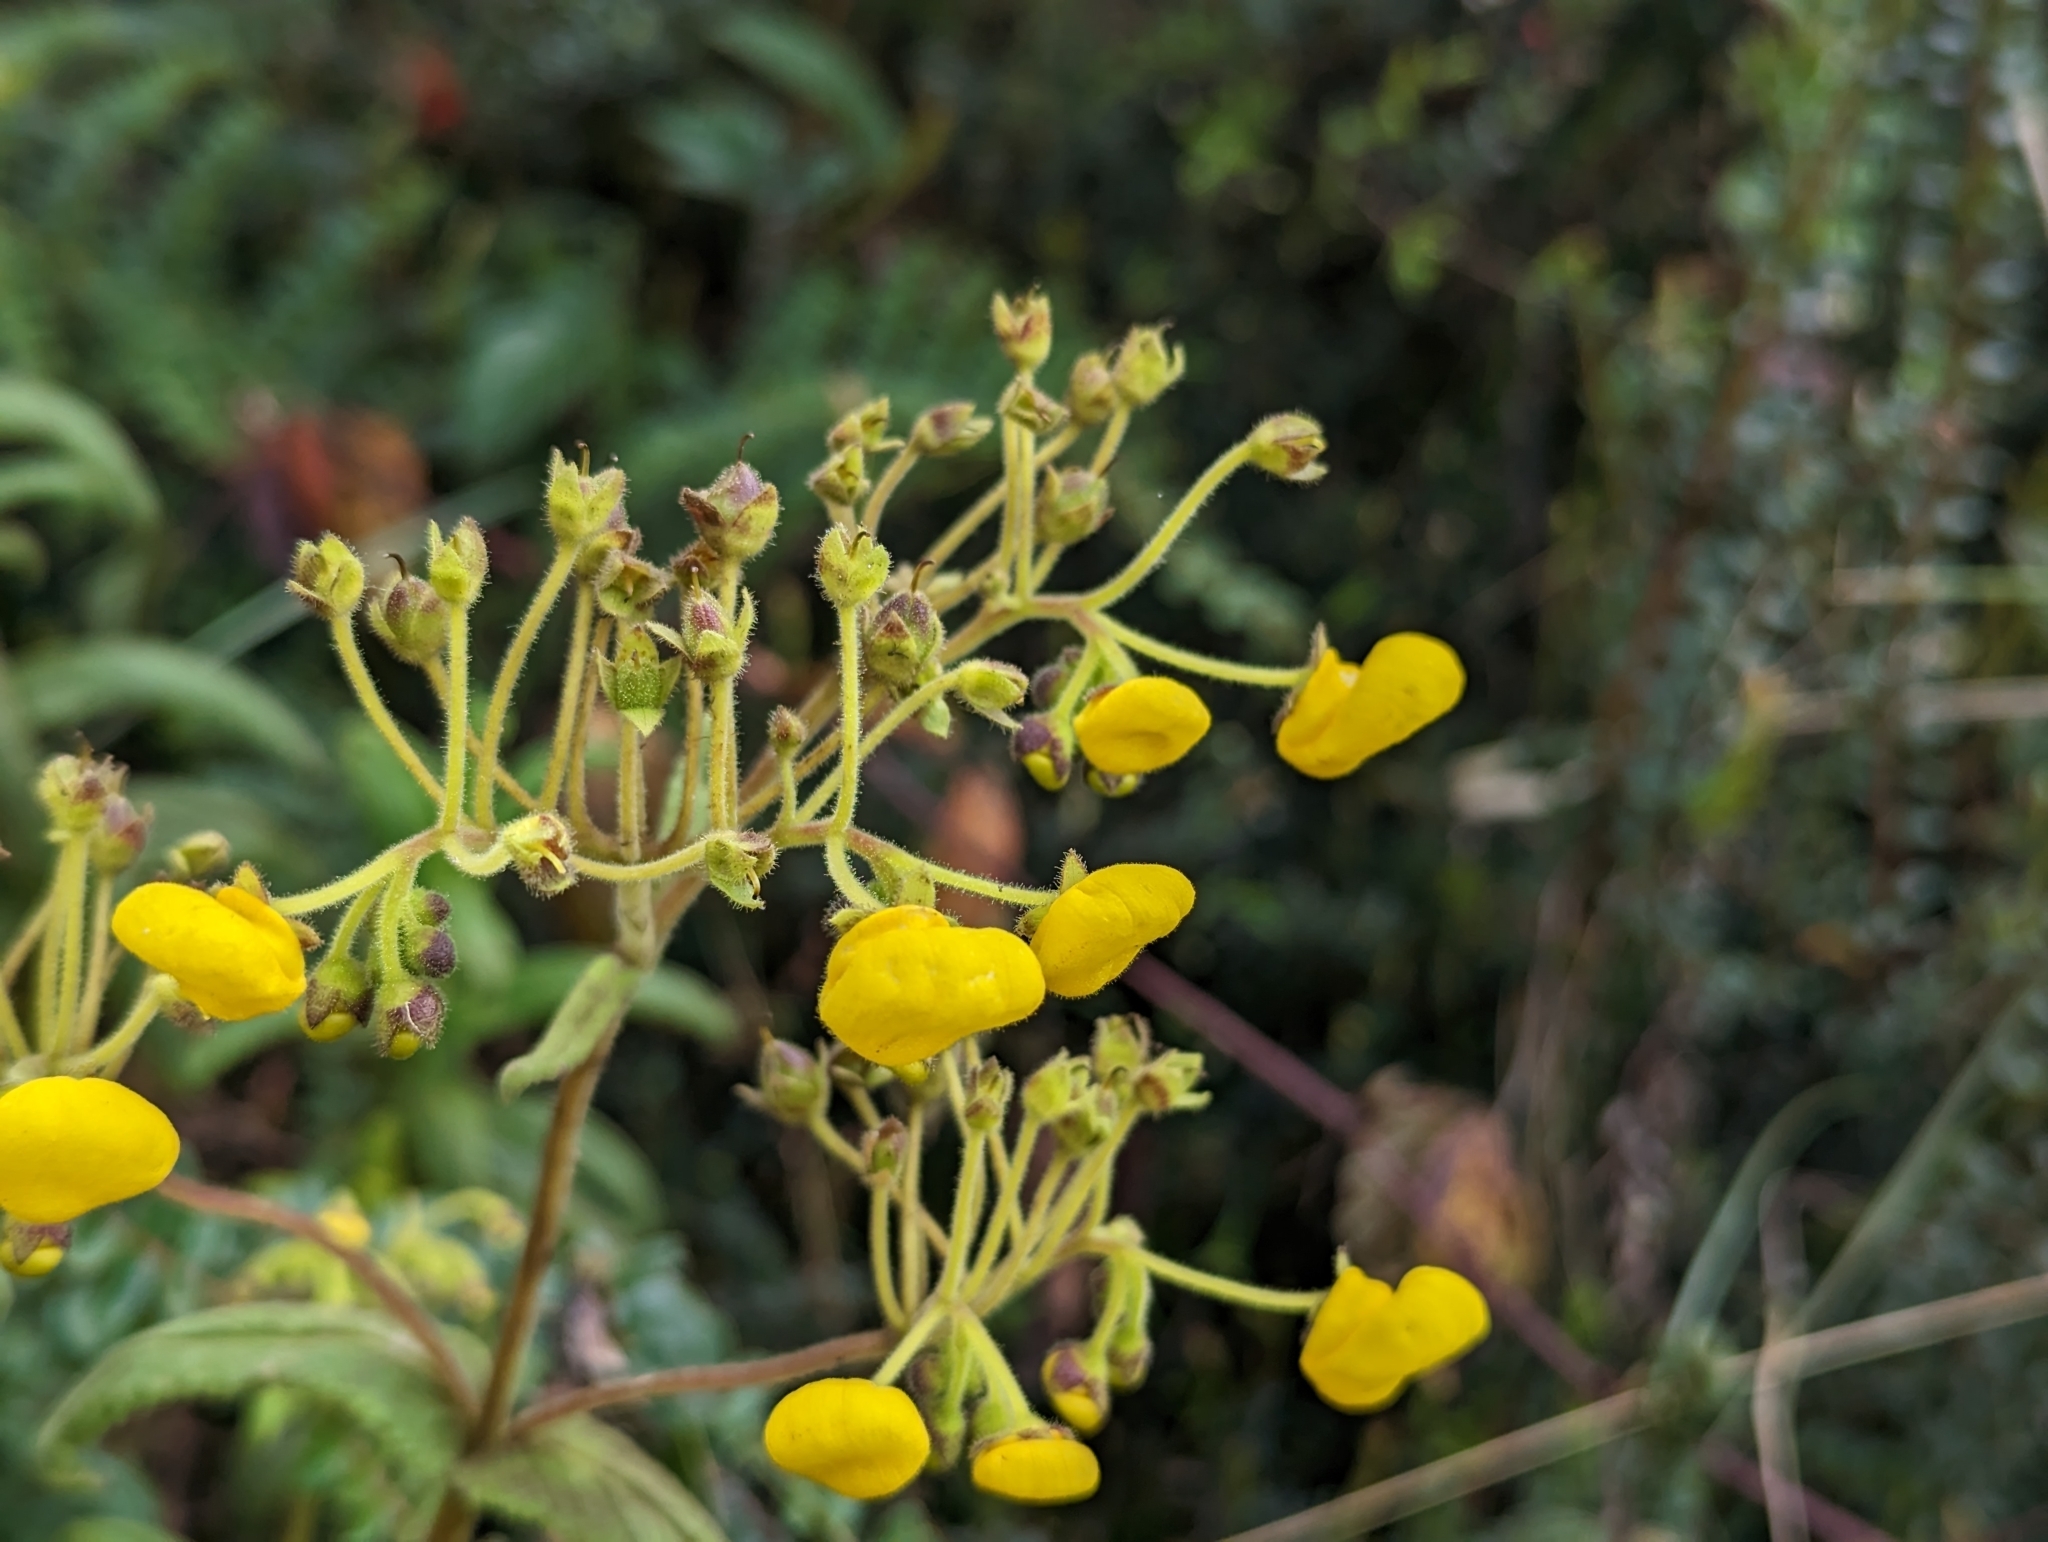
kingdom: Plantae
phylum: Tracheophyta
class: Magnoliopsida
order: Lamiales
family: Calceolariaceae
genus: Calceolaria
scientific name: Calceolaria crenata
